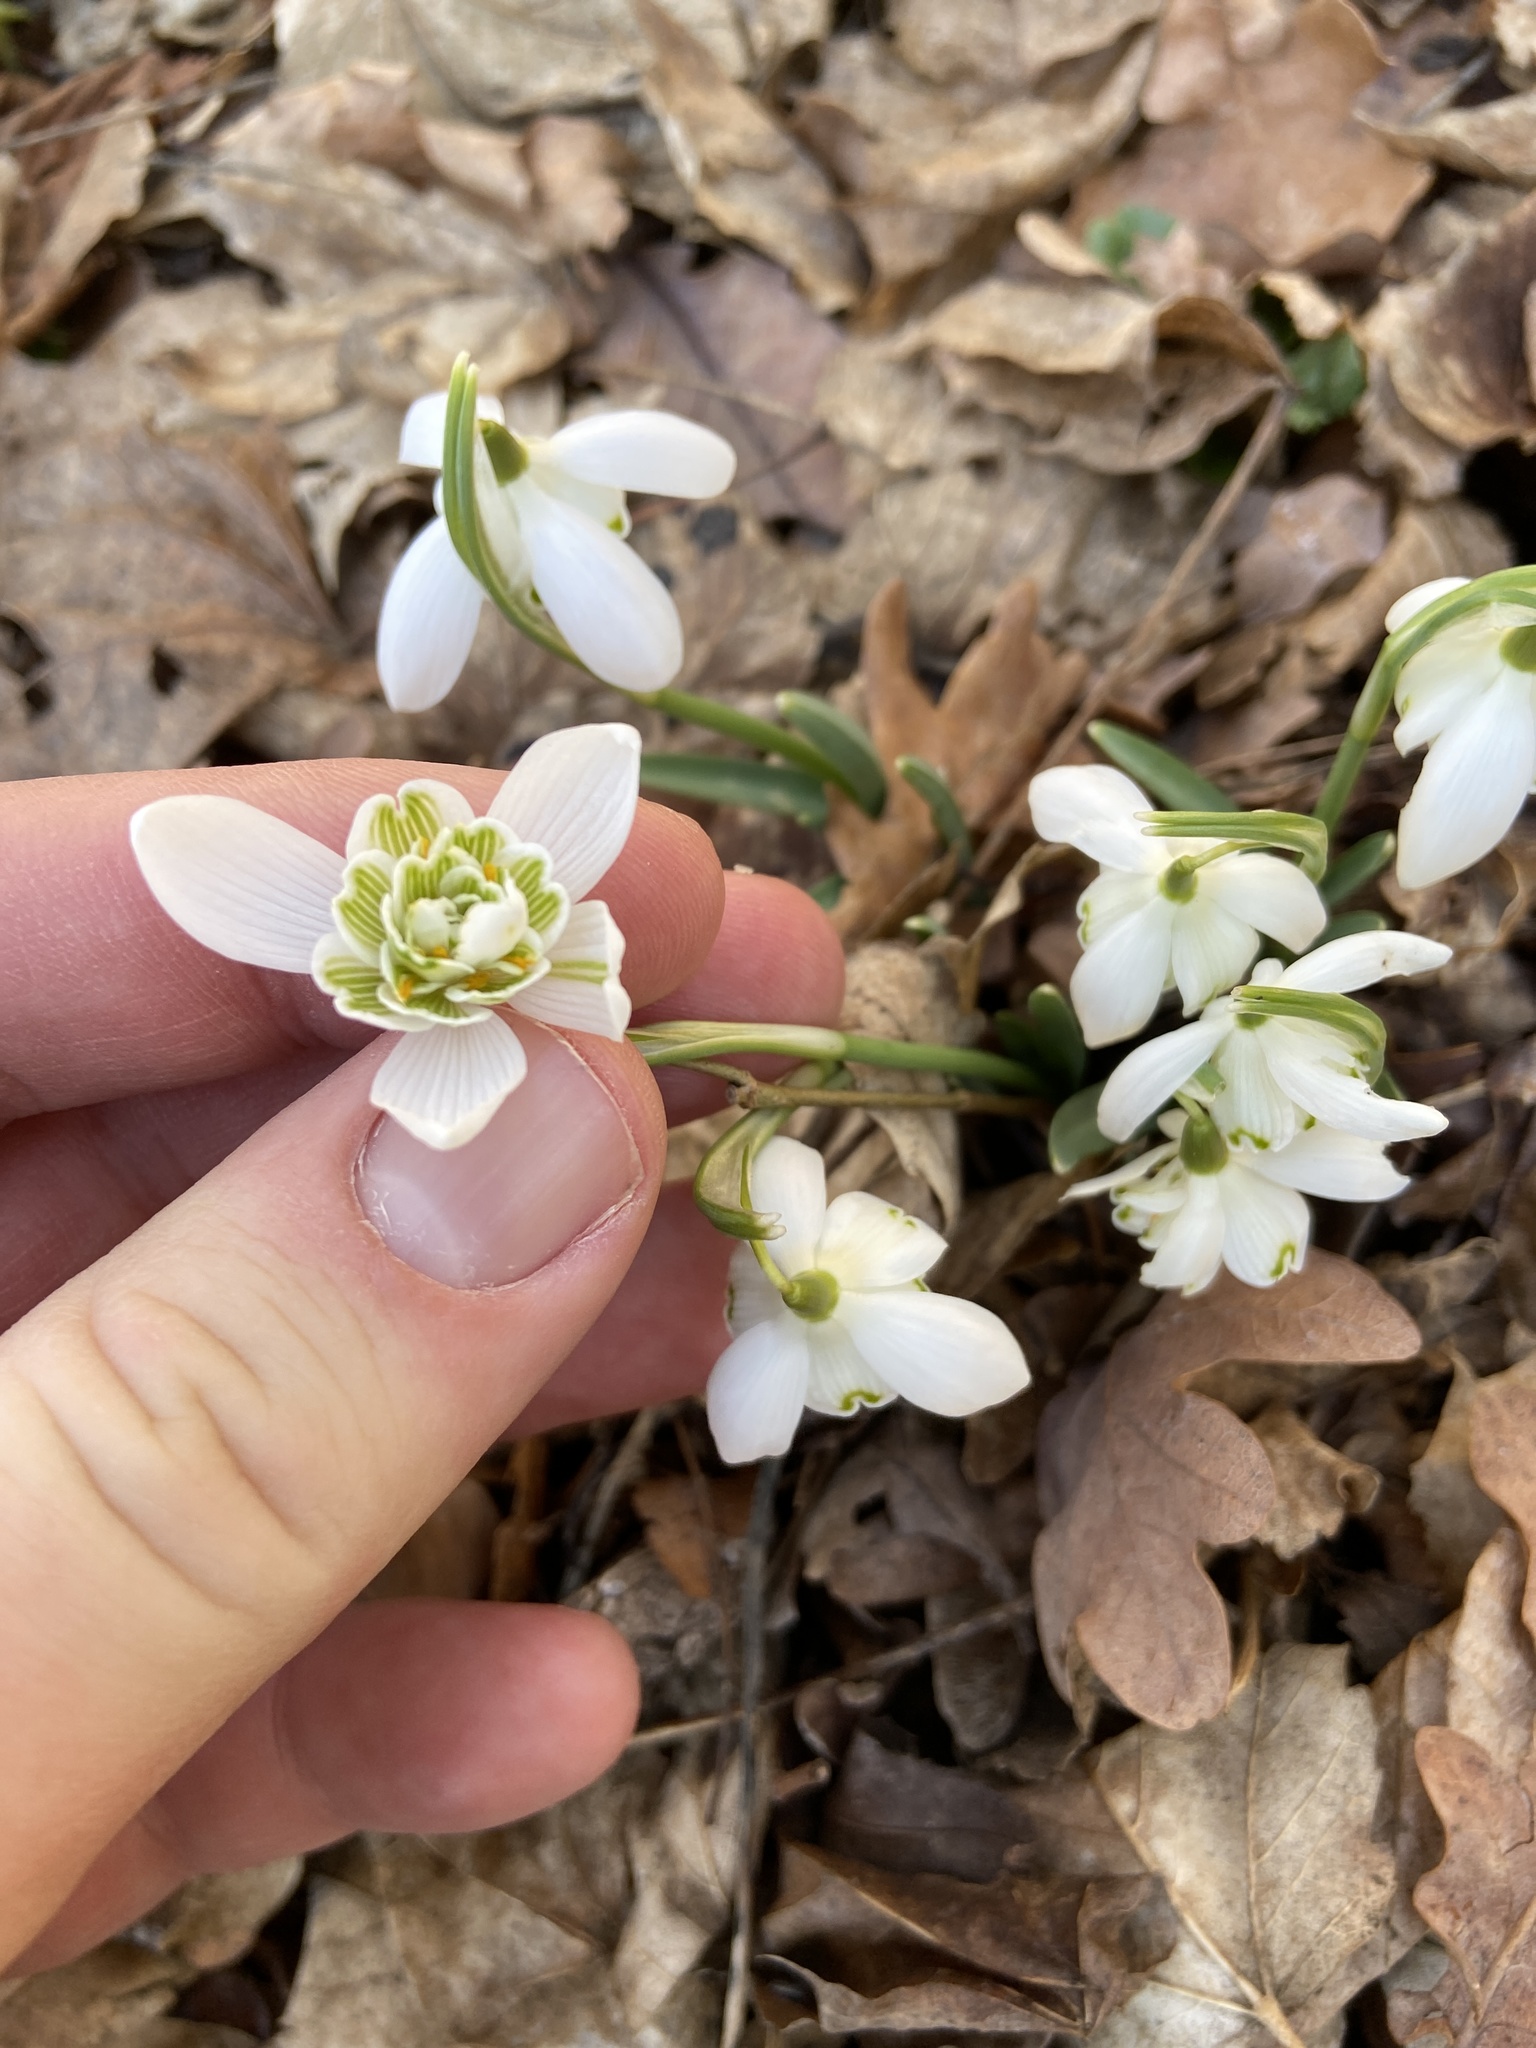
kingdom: Plantae
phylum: Tracheophyta
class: Liliopsida
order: Asparagales
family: Amaryllidaceae
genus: Galanthus
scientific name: Galanthus nivalis
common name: Snowdrop
